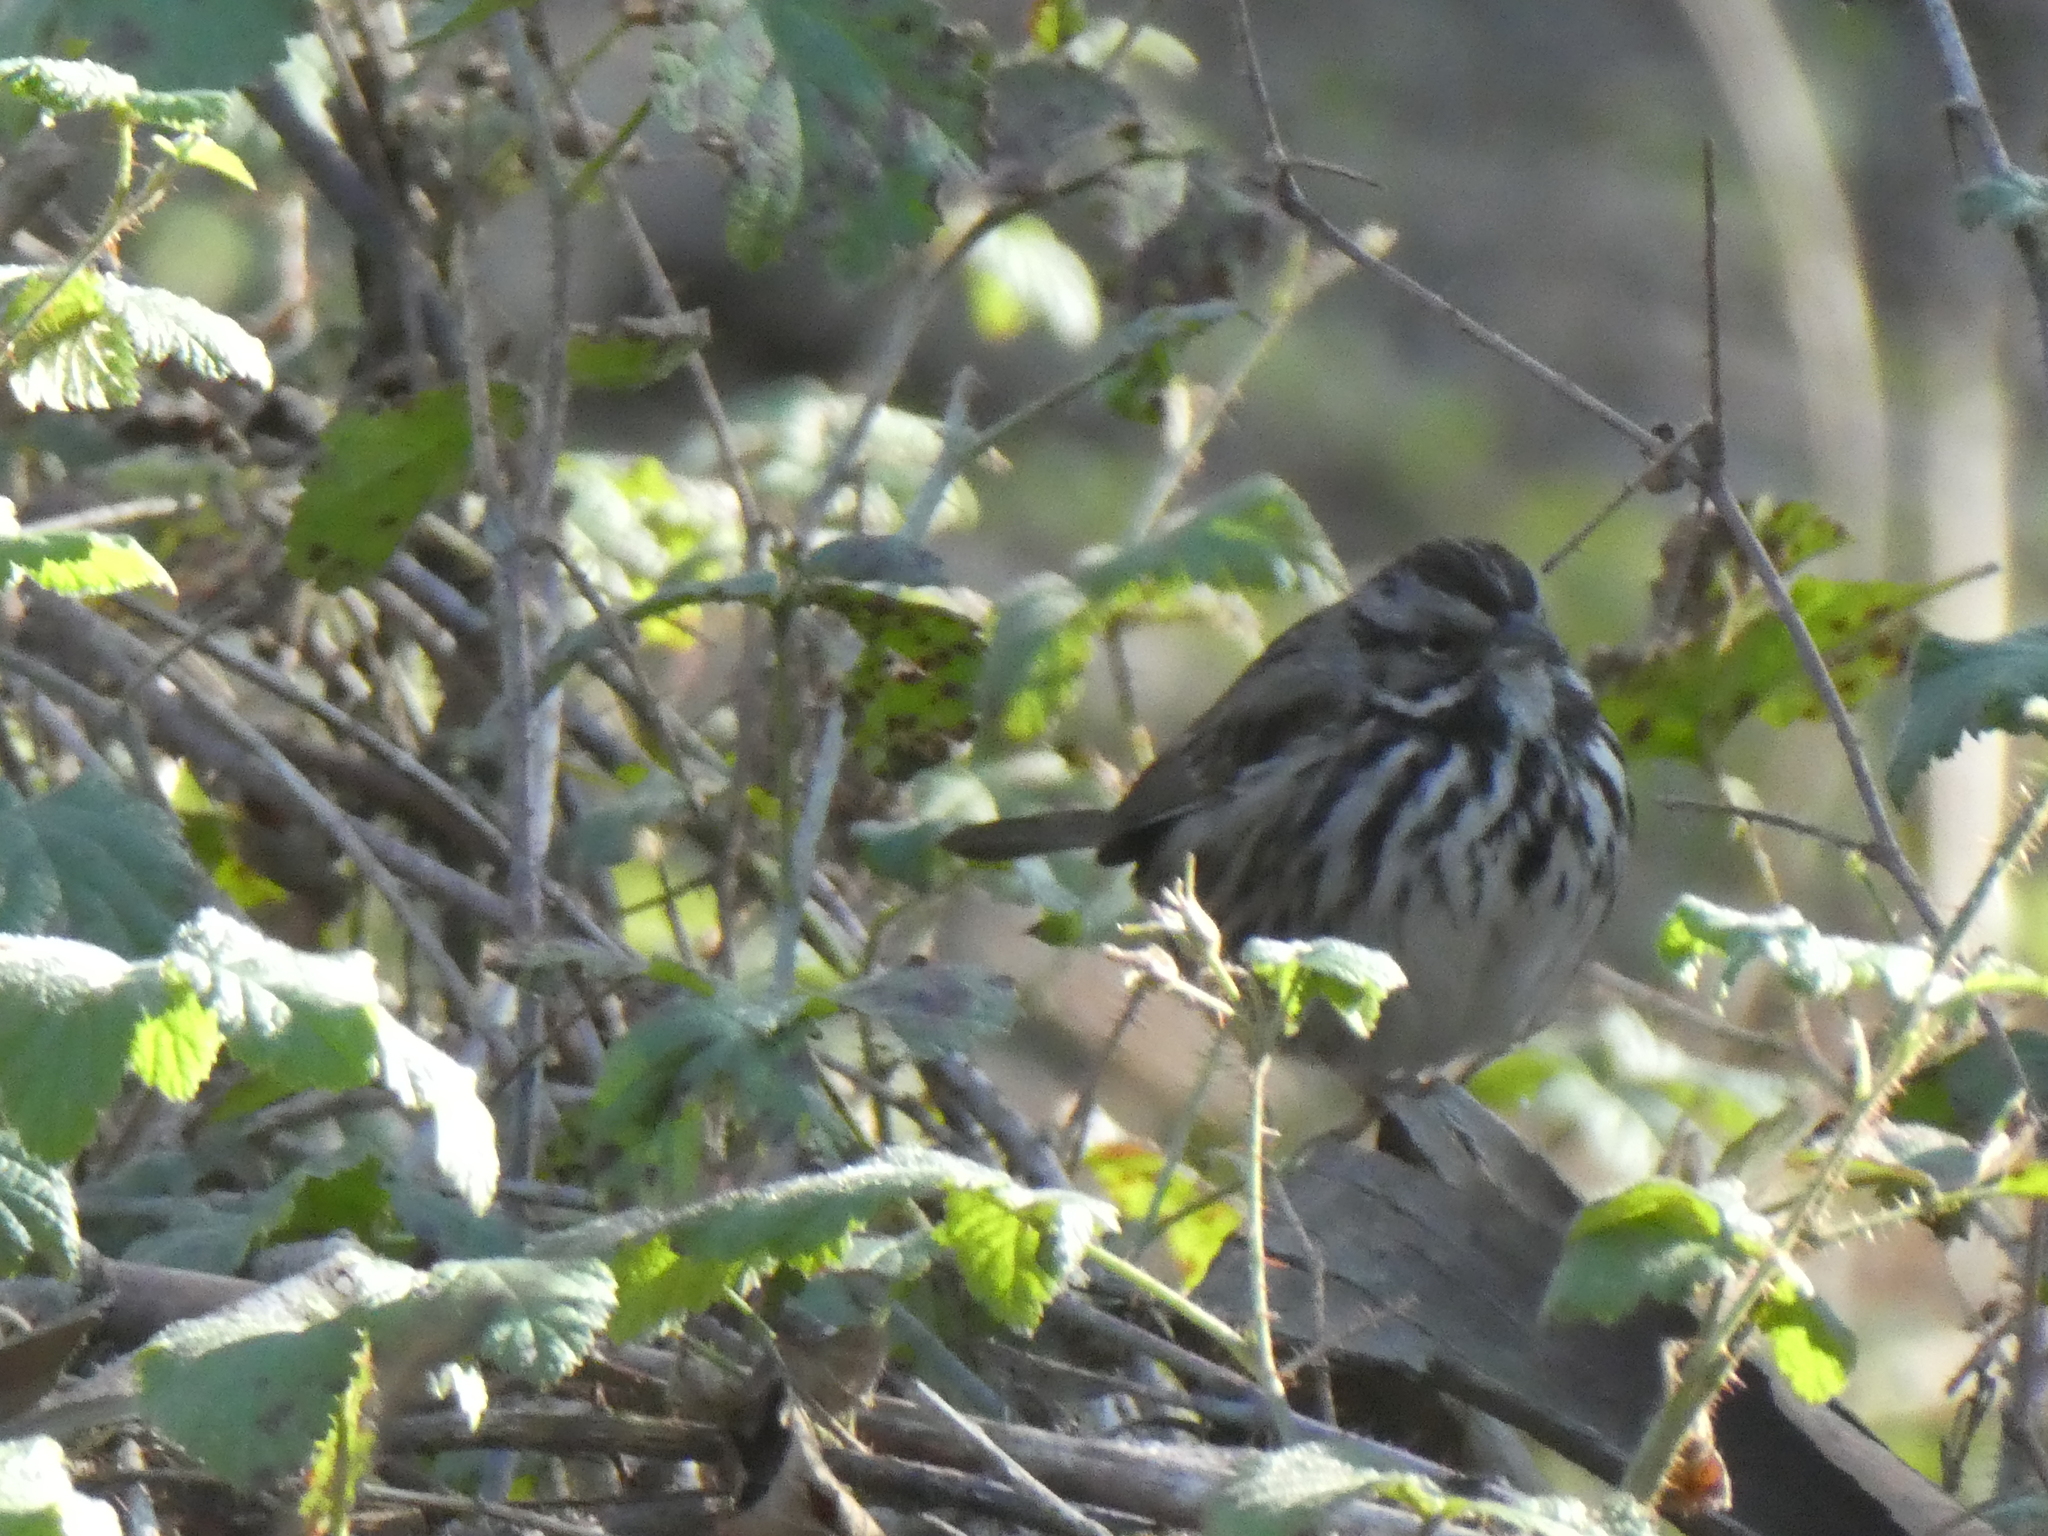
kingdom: Animalia
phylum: Chordata
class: Aves
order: Passeriformes
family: Passerellidae
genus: Melospiza
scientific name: Melospiza melodia
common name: Song sparrow
